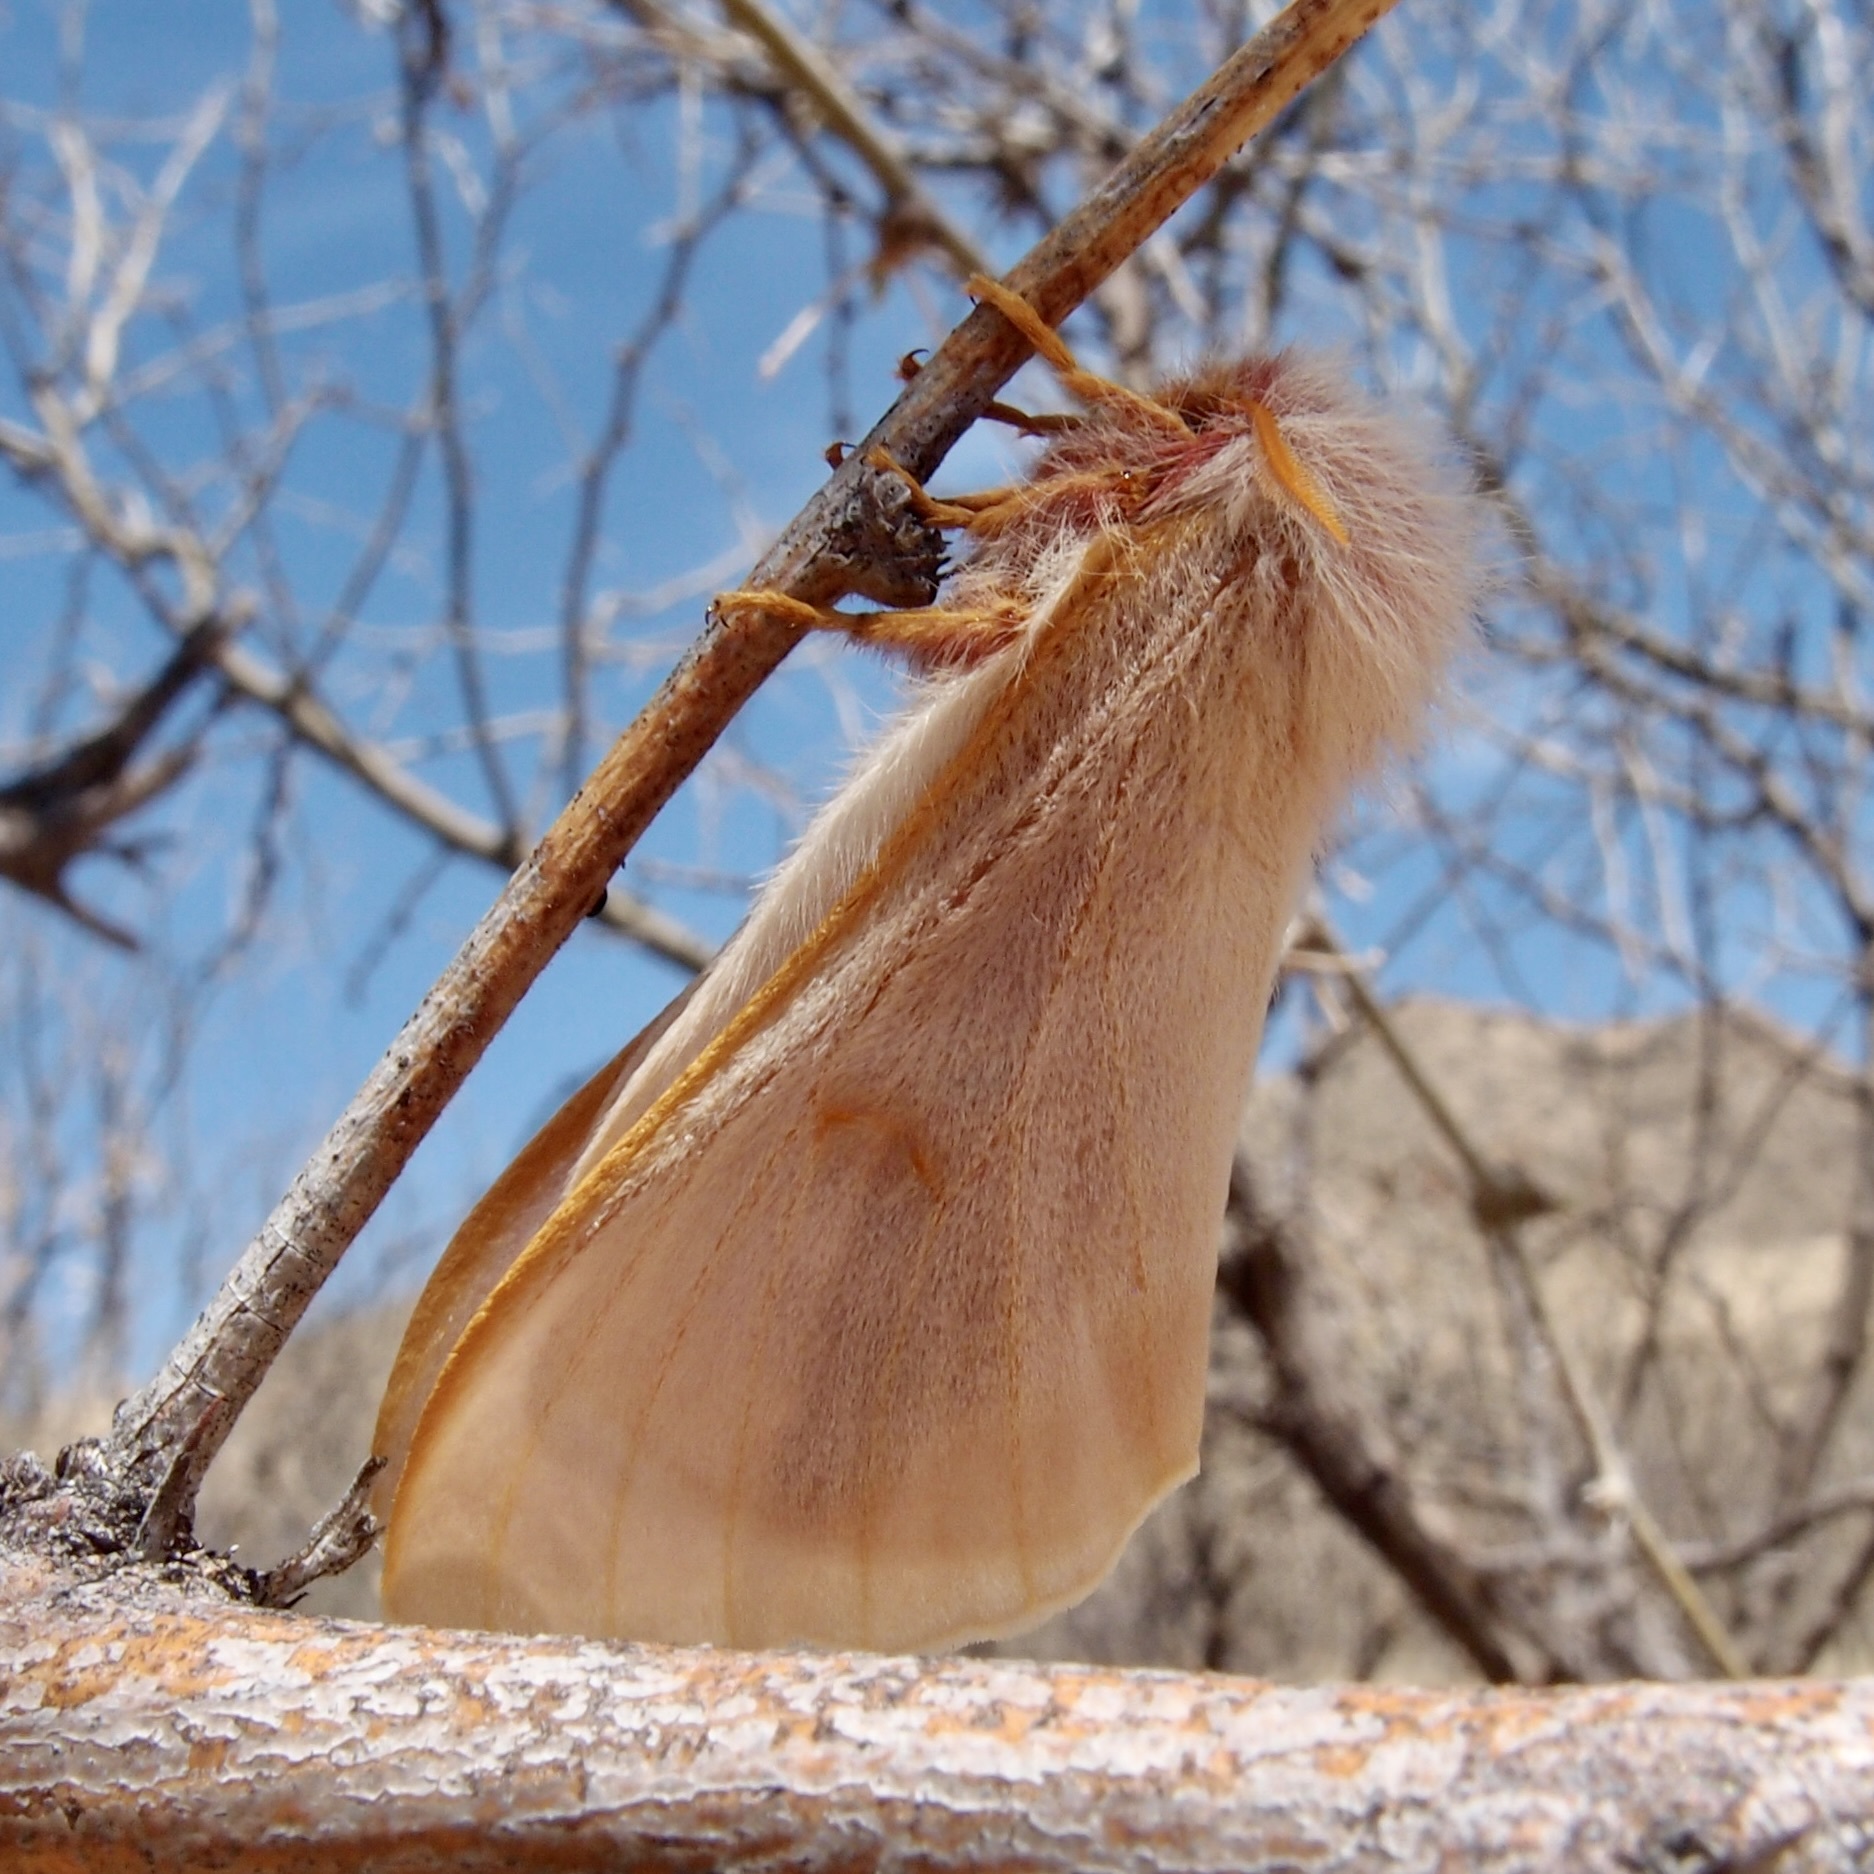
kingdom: Animalia
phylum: Arthropoda
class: Insecta
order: Lepidoptera
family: Saturniidae
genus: Hemileuca
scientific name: Hemileuca hualapai
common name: Hualapai buckmoth
